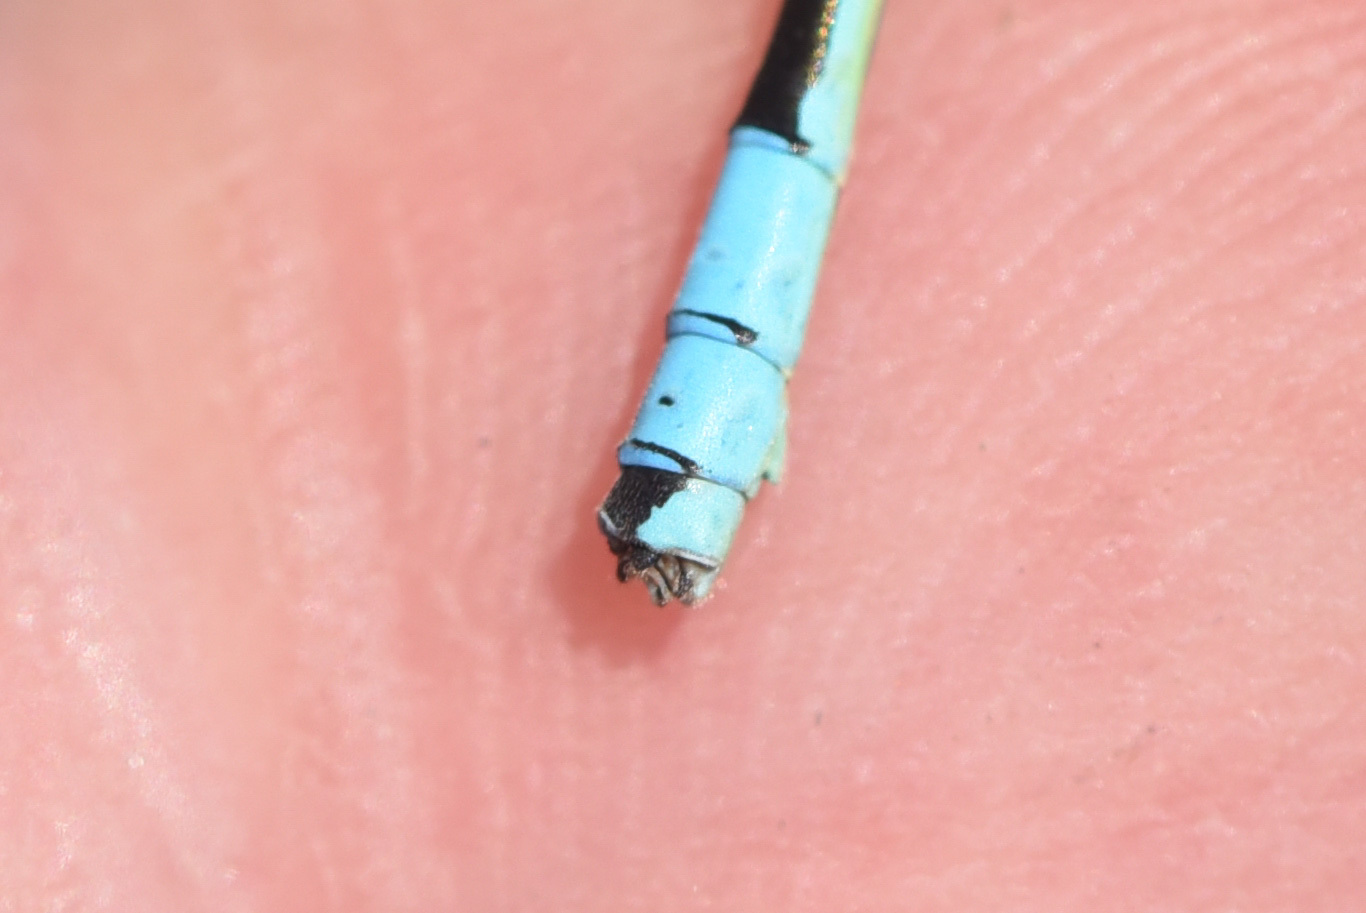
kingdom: Animalia
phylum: Arthropoda
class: Insecta
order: Odonata
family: Coenagrionidae
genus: Coenagrion
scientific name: Coenagrion resolutum
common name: Taiga bluet
